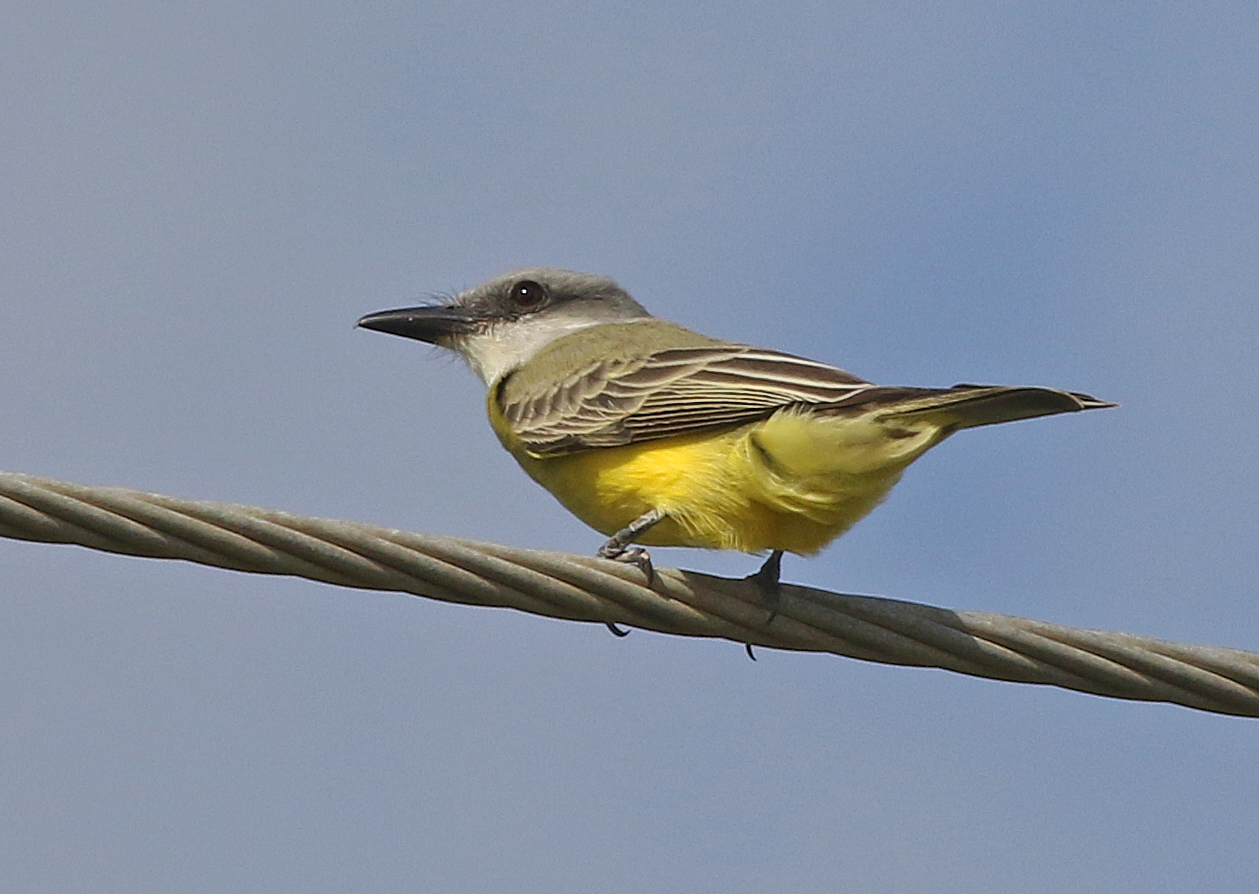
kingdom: Animalia
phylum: Chordata
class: Aves
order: Passeriformes
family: Tyrannidae
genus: Tyrannus
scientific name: Tyrannus melancholicus
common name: Tropical kingbird
